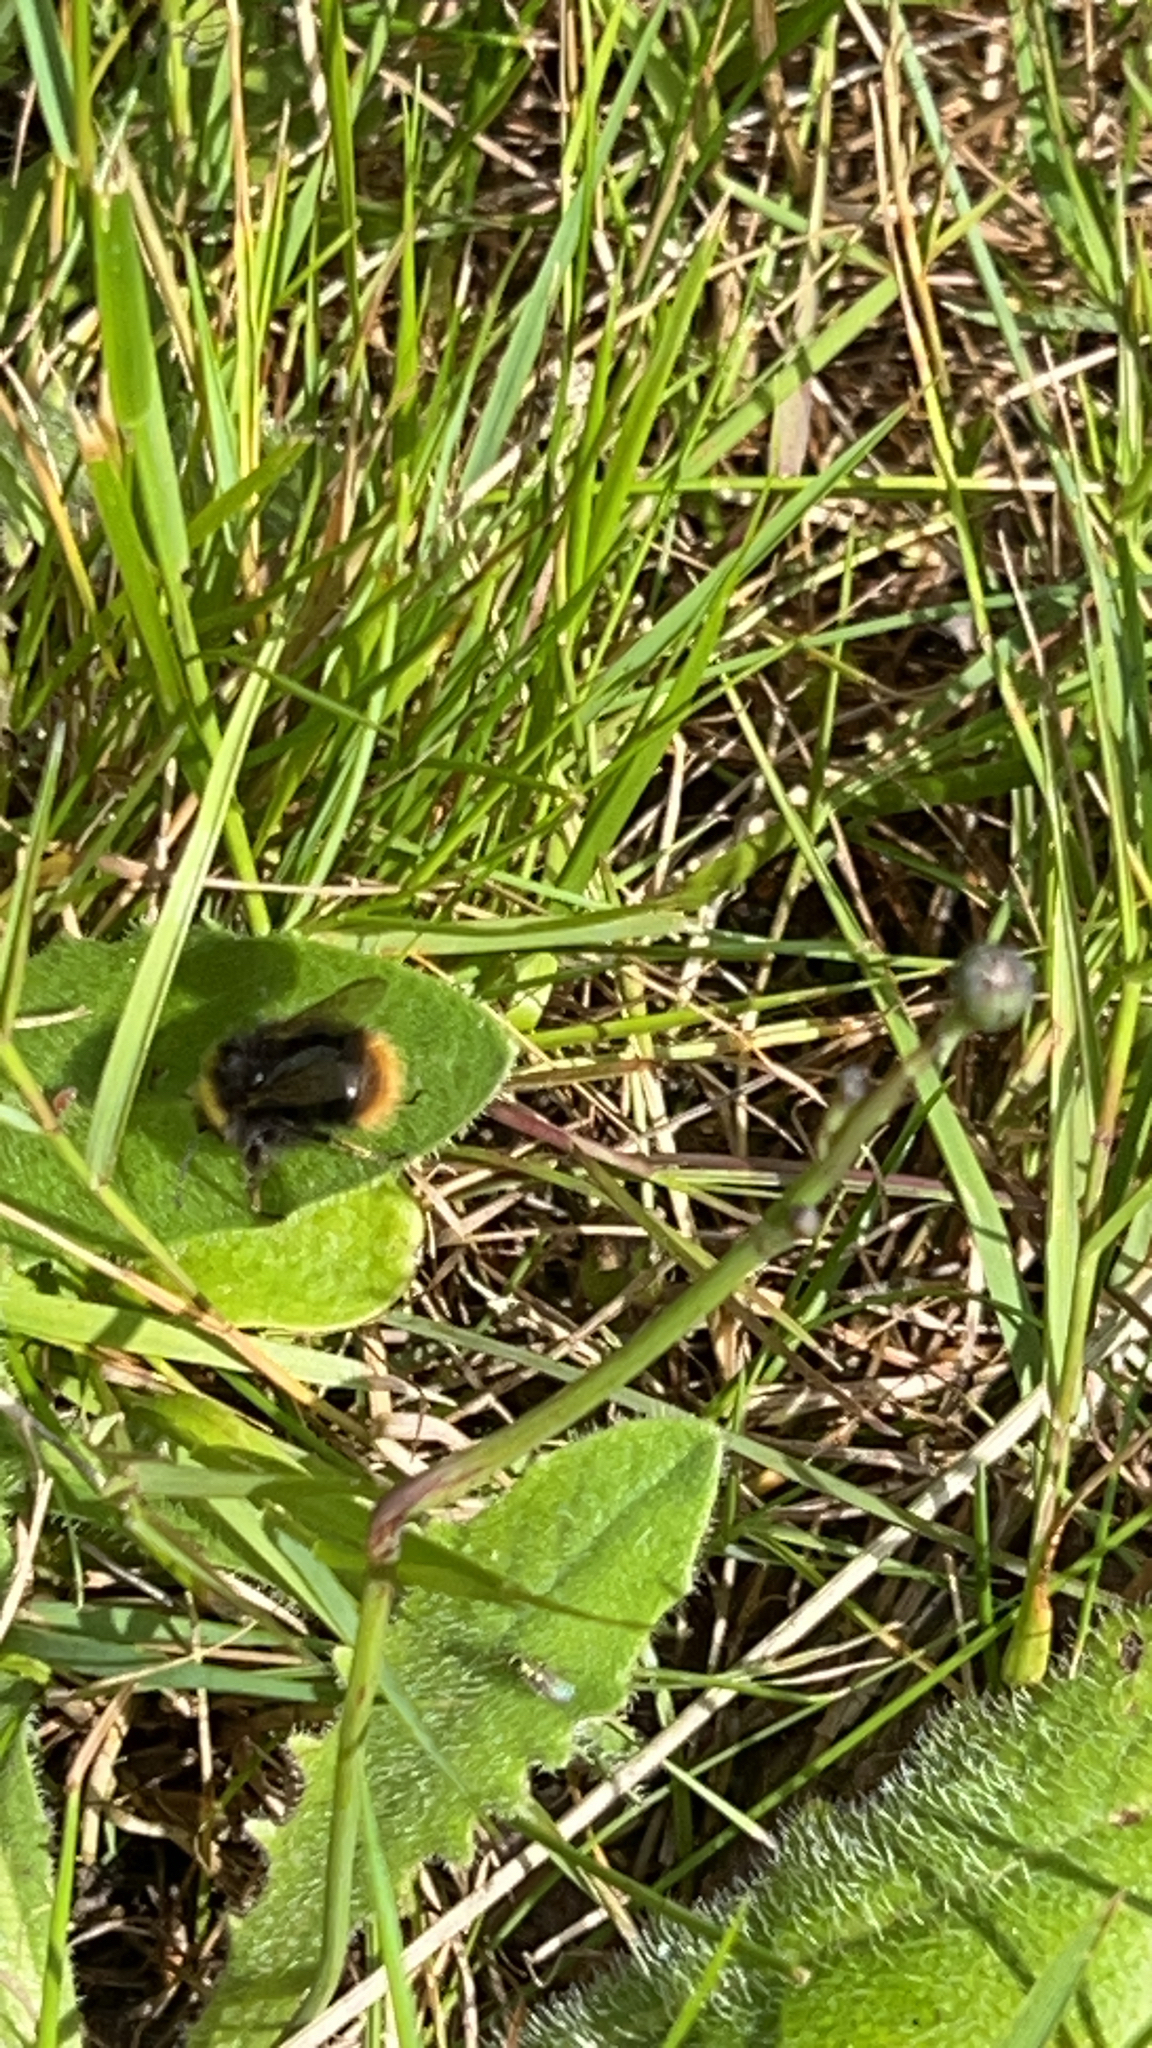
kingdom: Animalia
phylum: Arthropoda
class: Insecta
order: Hymenoptera
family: Apidae
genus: Bombus
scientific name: Bombus pratorum
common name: Early humble-bee
